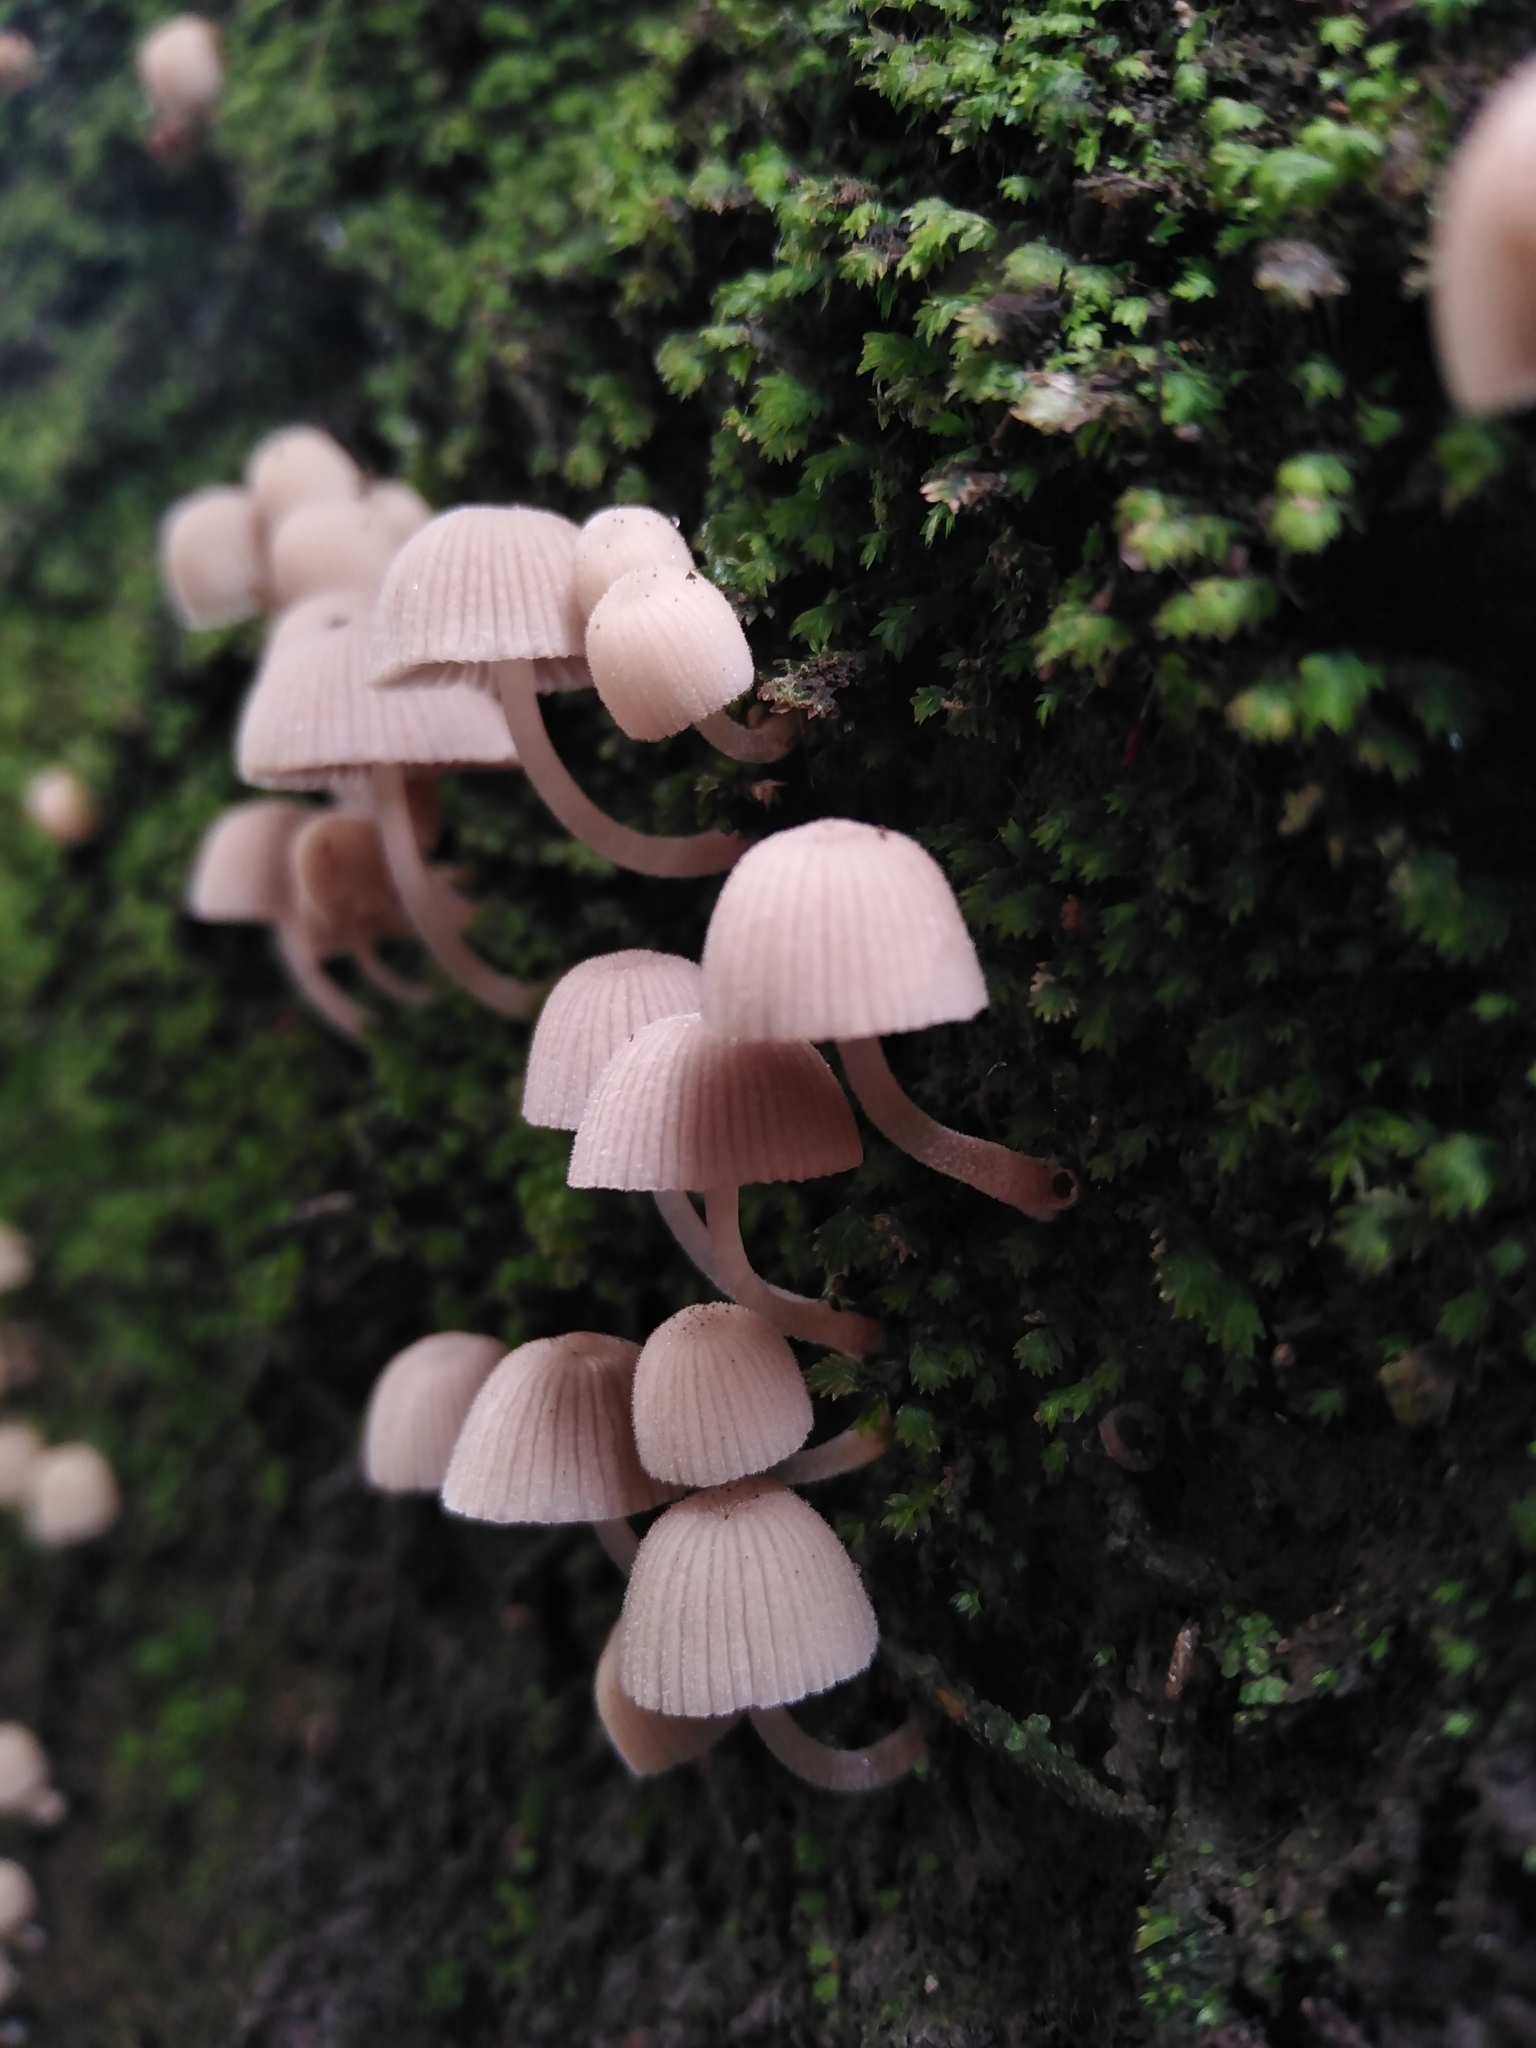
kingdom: Fungi
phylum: Basidiomycota
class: Agaricomycetes
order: Agaricales
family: Mycenaceae
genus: Mycena
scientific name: Mycena haematopus
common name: Burgundydrop bonnet
